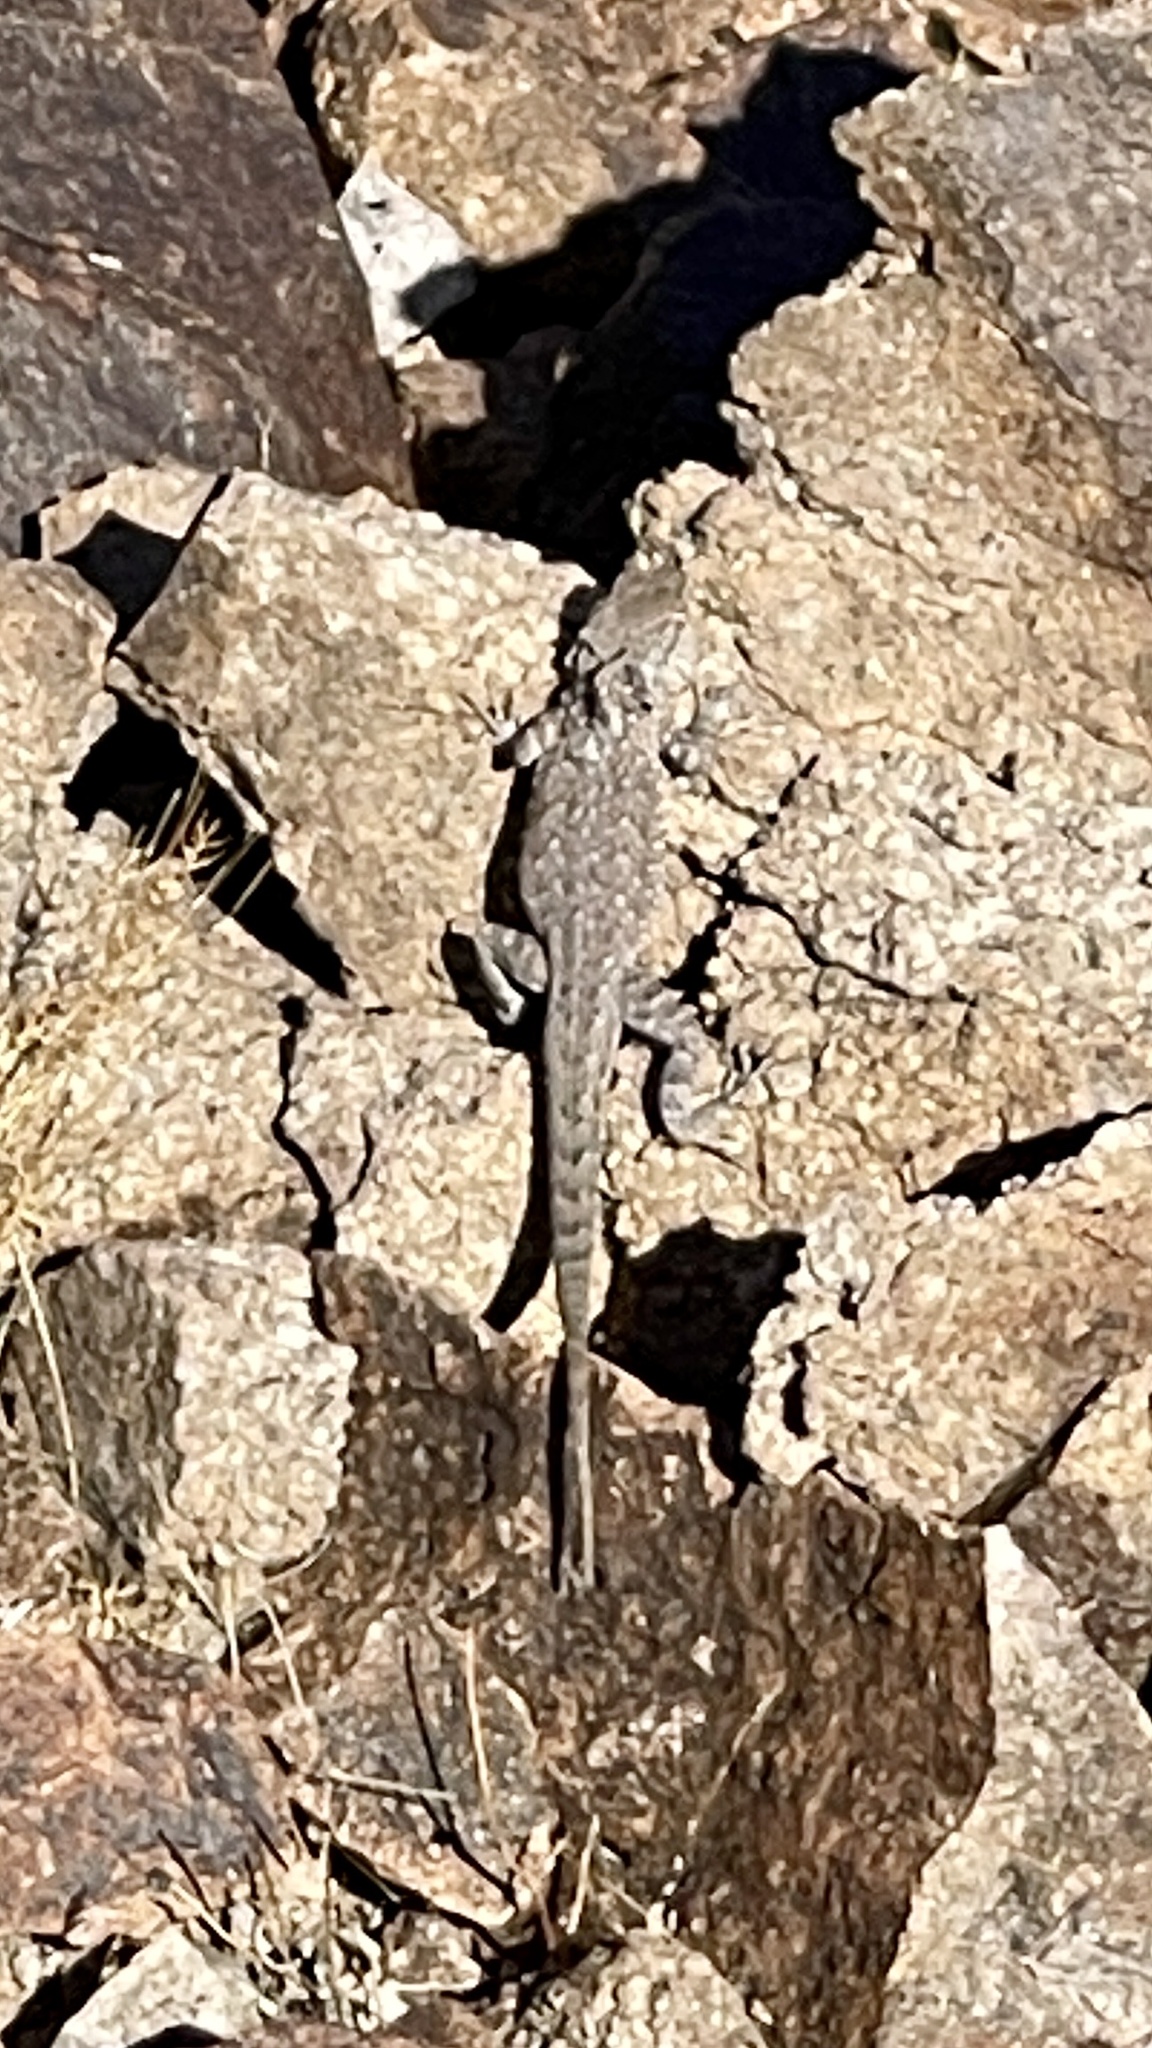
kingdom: Animalia
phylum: Chordata
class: Squamata
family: Phrynosomatidae
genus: Uta
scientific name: Uta stansburiana
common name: Side-blotched lizard
